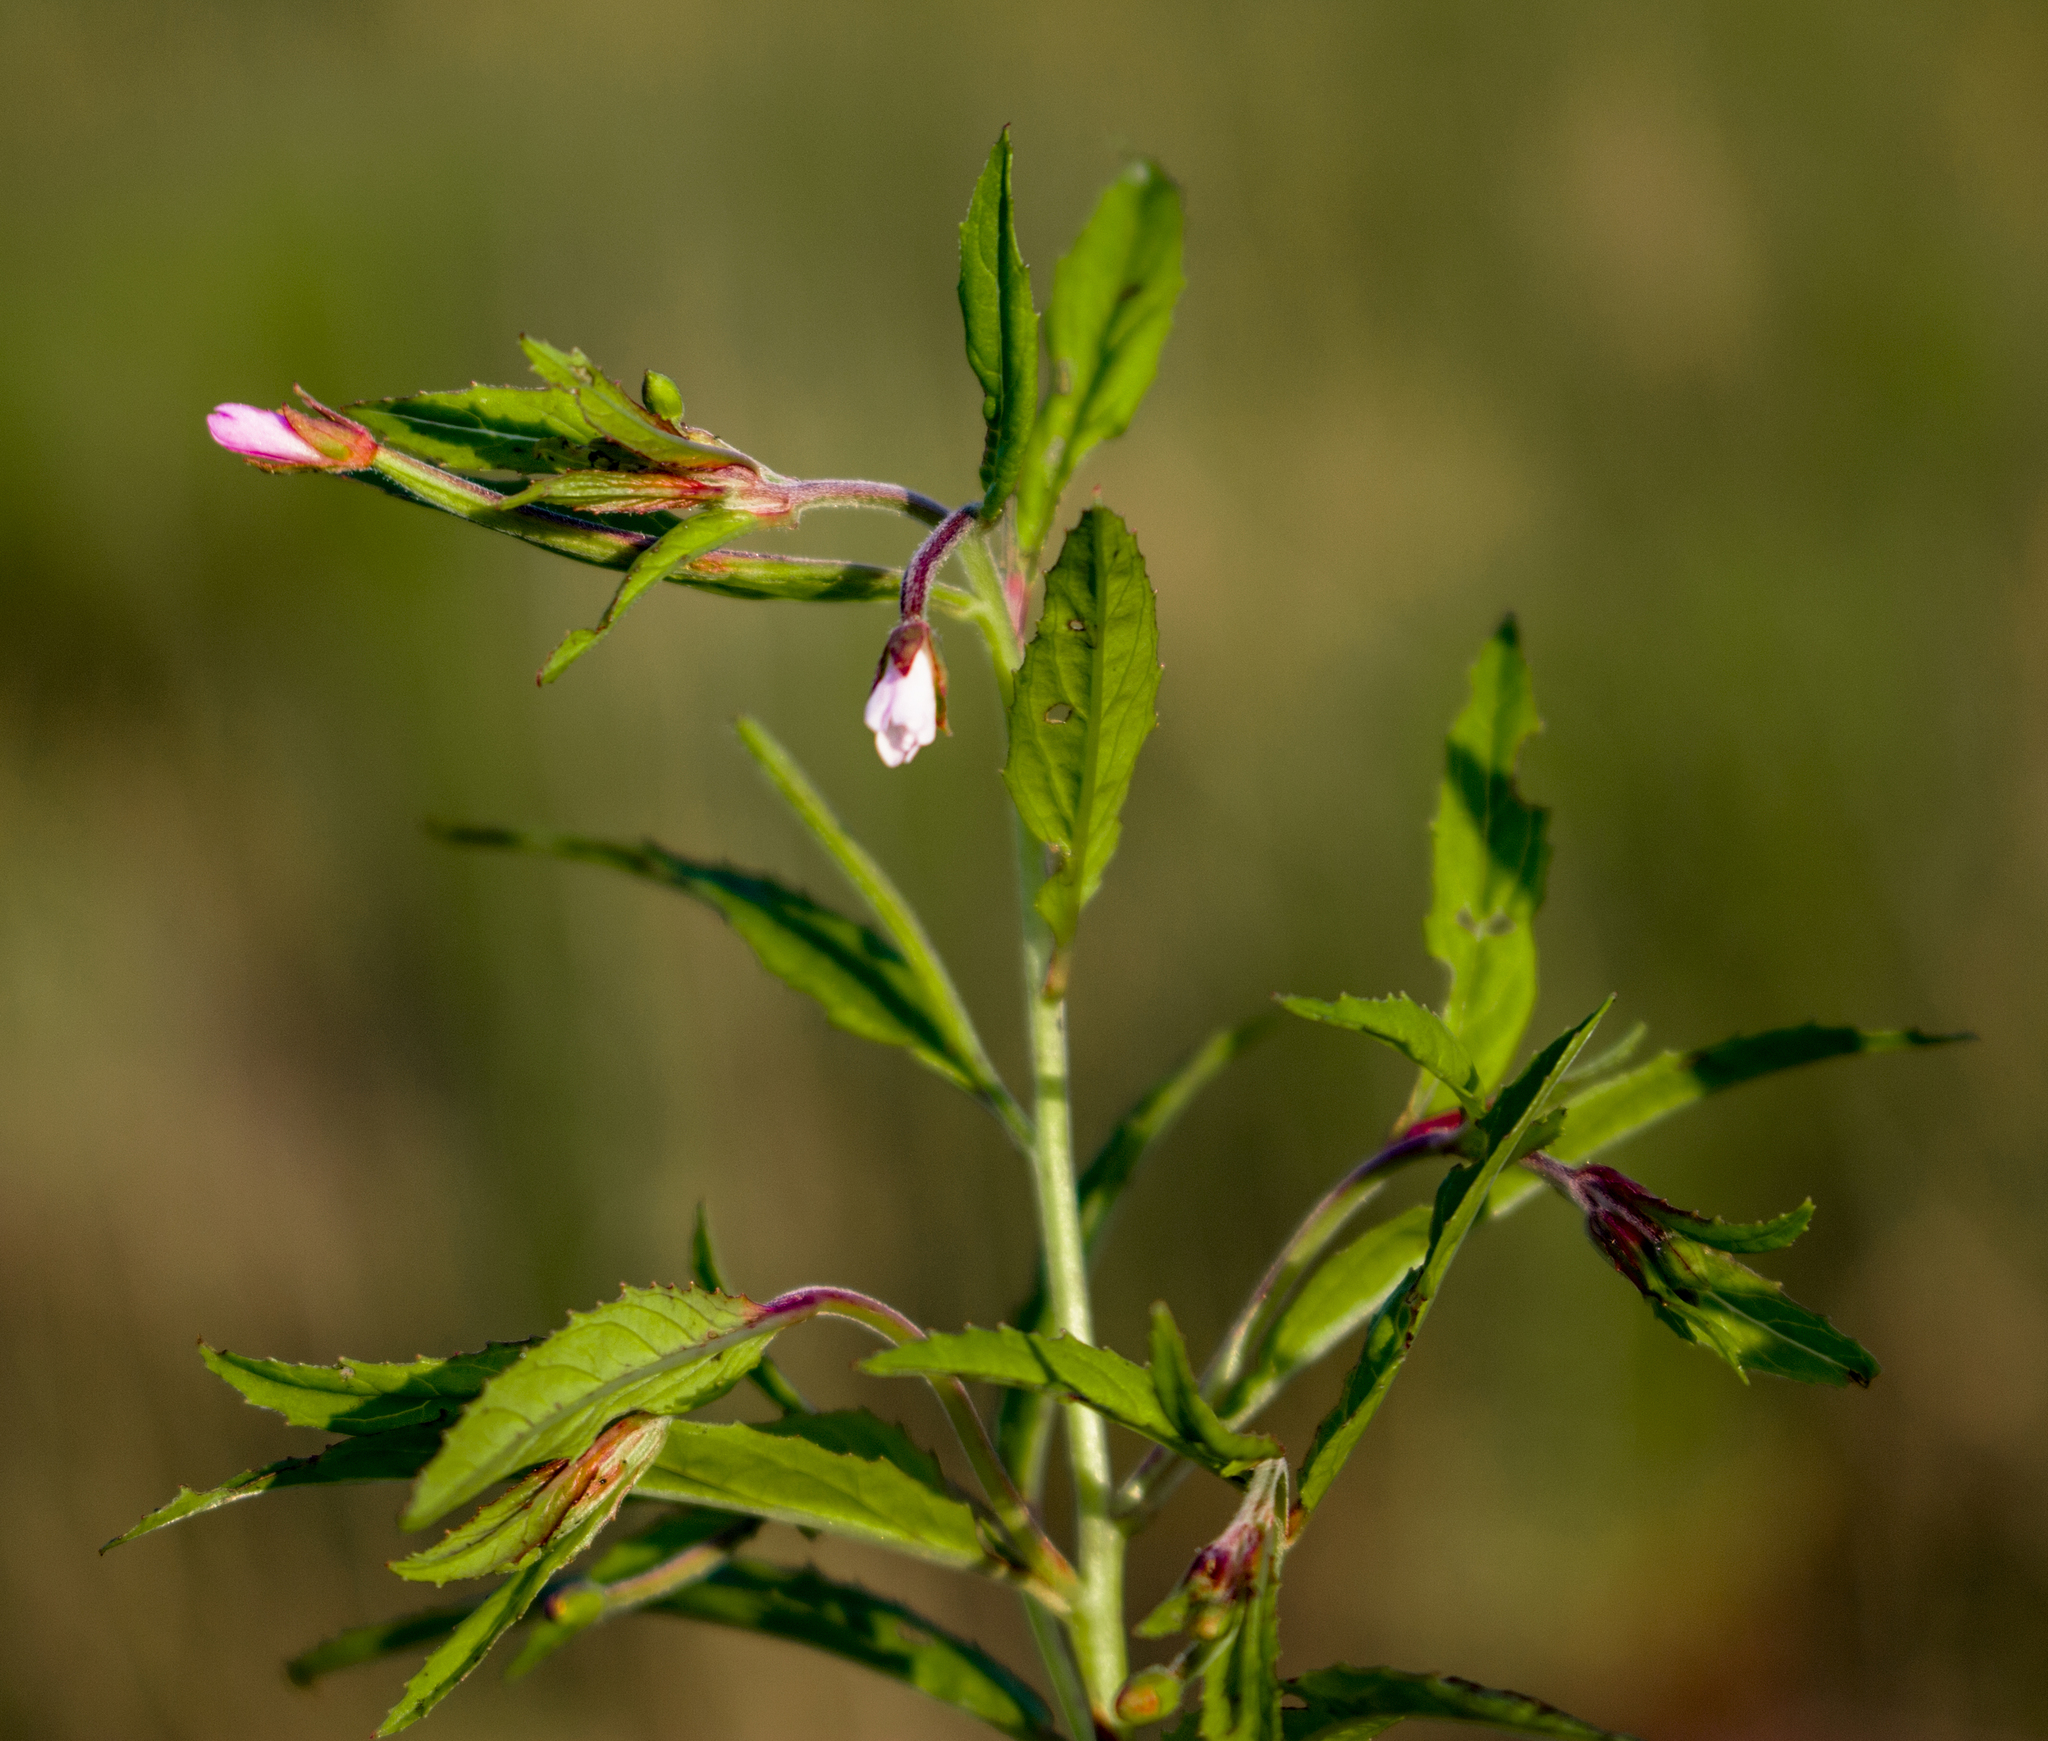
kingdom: Plantae
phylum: Tracheophyta
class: Magnoliopsida
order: Myrtales
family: Onagraceae
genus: Epilobium
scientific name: Epilobium coloratum
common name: Bronze willowherb
